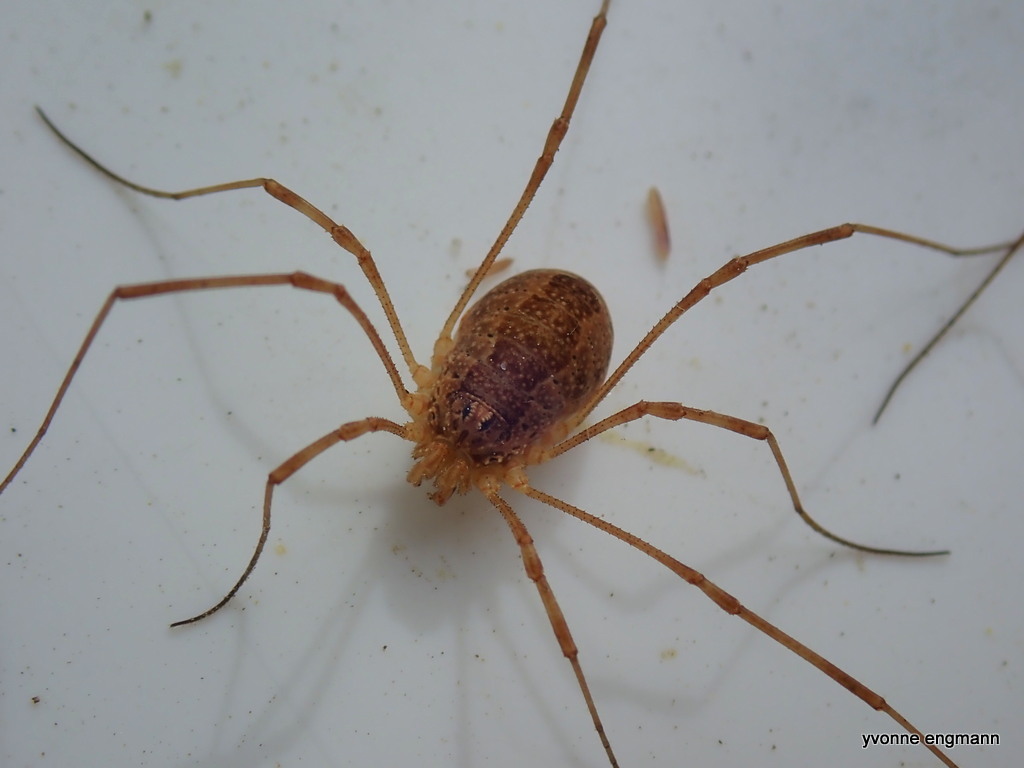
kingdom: Animalia
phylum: Arthropoda
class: Arachnida
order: Opiliones
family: Phalangiidae
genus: Rilaena
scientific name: Rilaena triangularis
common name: Spring harvestman
